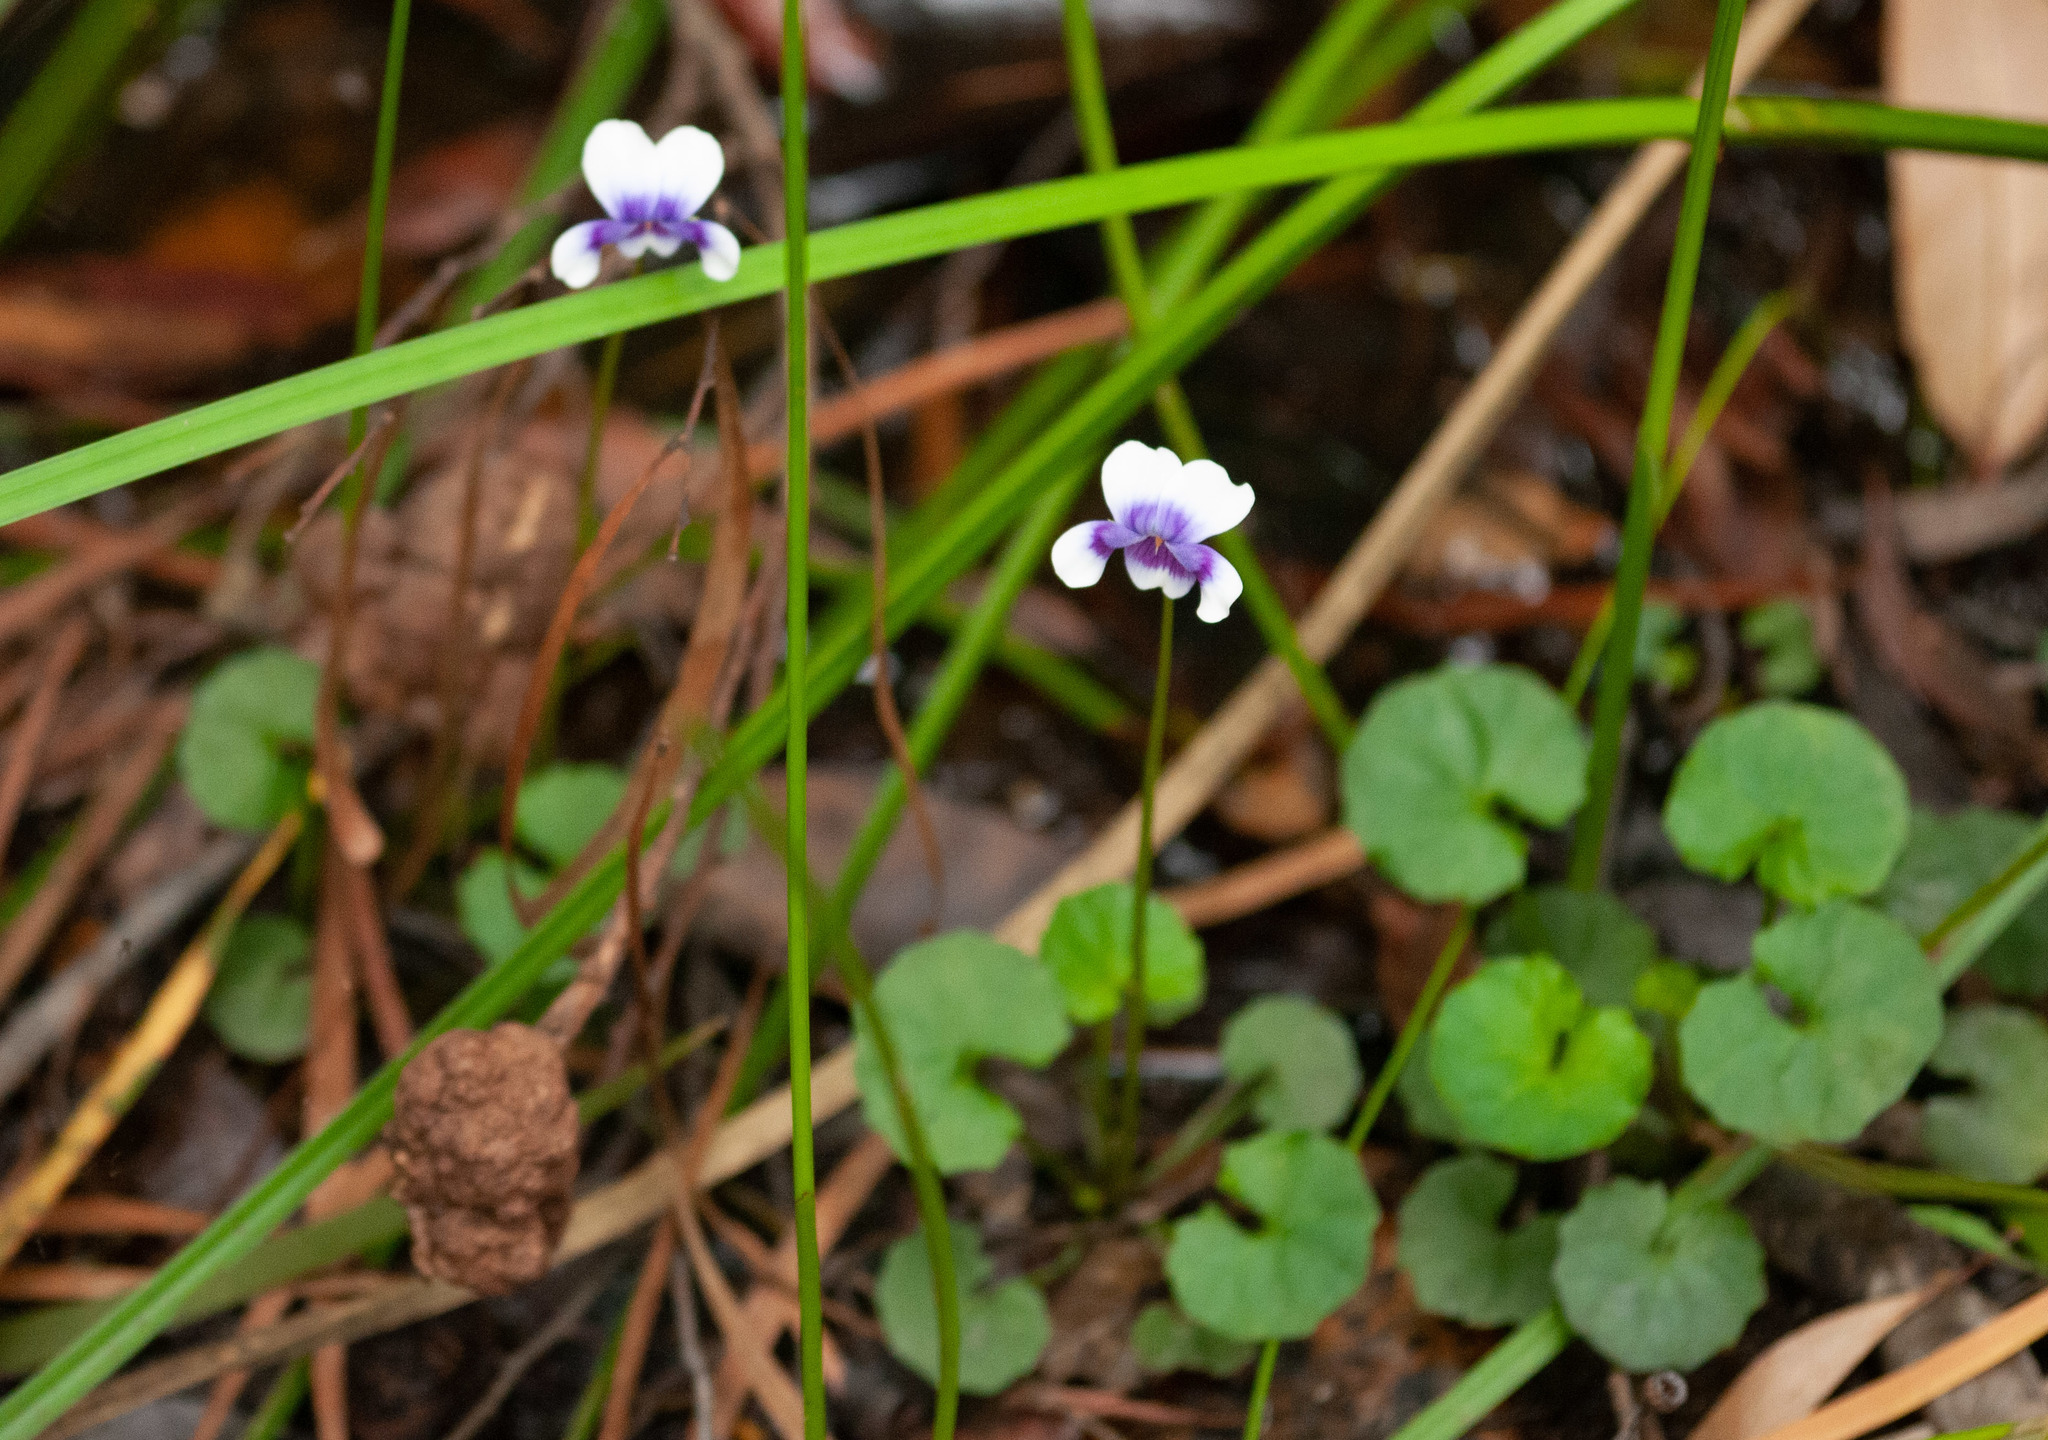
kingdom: Plantae
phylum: Tracheophyta
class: Magnoliopsida
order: Malpighiales
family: Violaceae
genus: Viola
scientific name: Viola banksii
